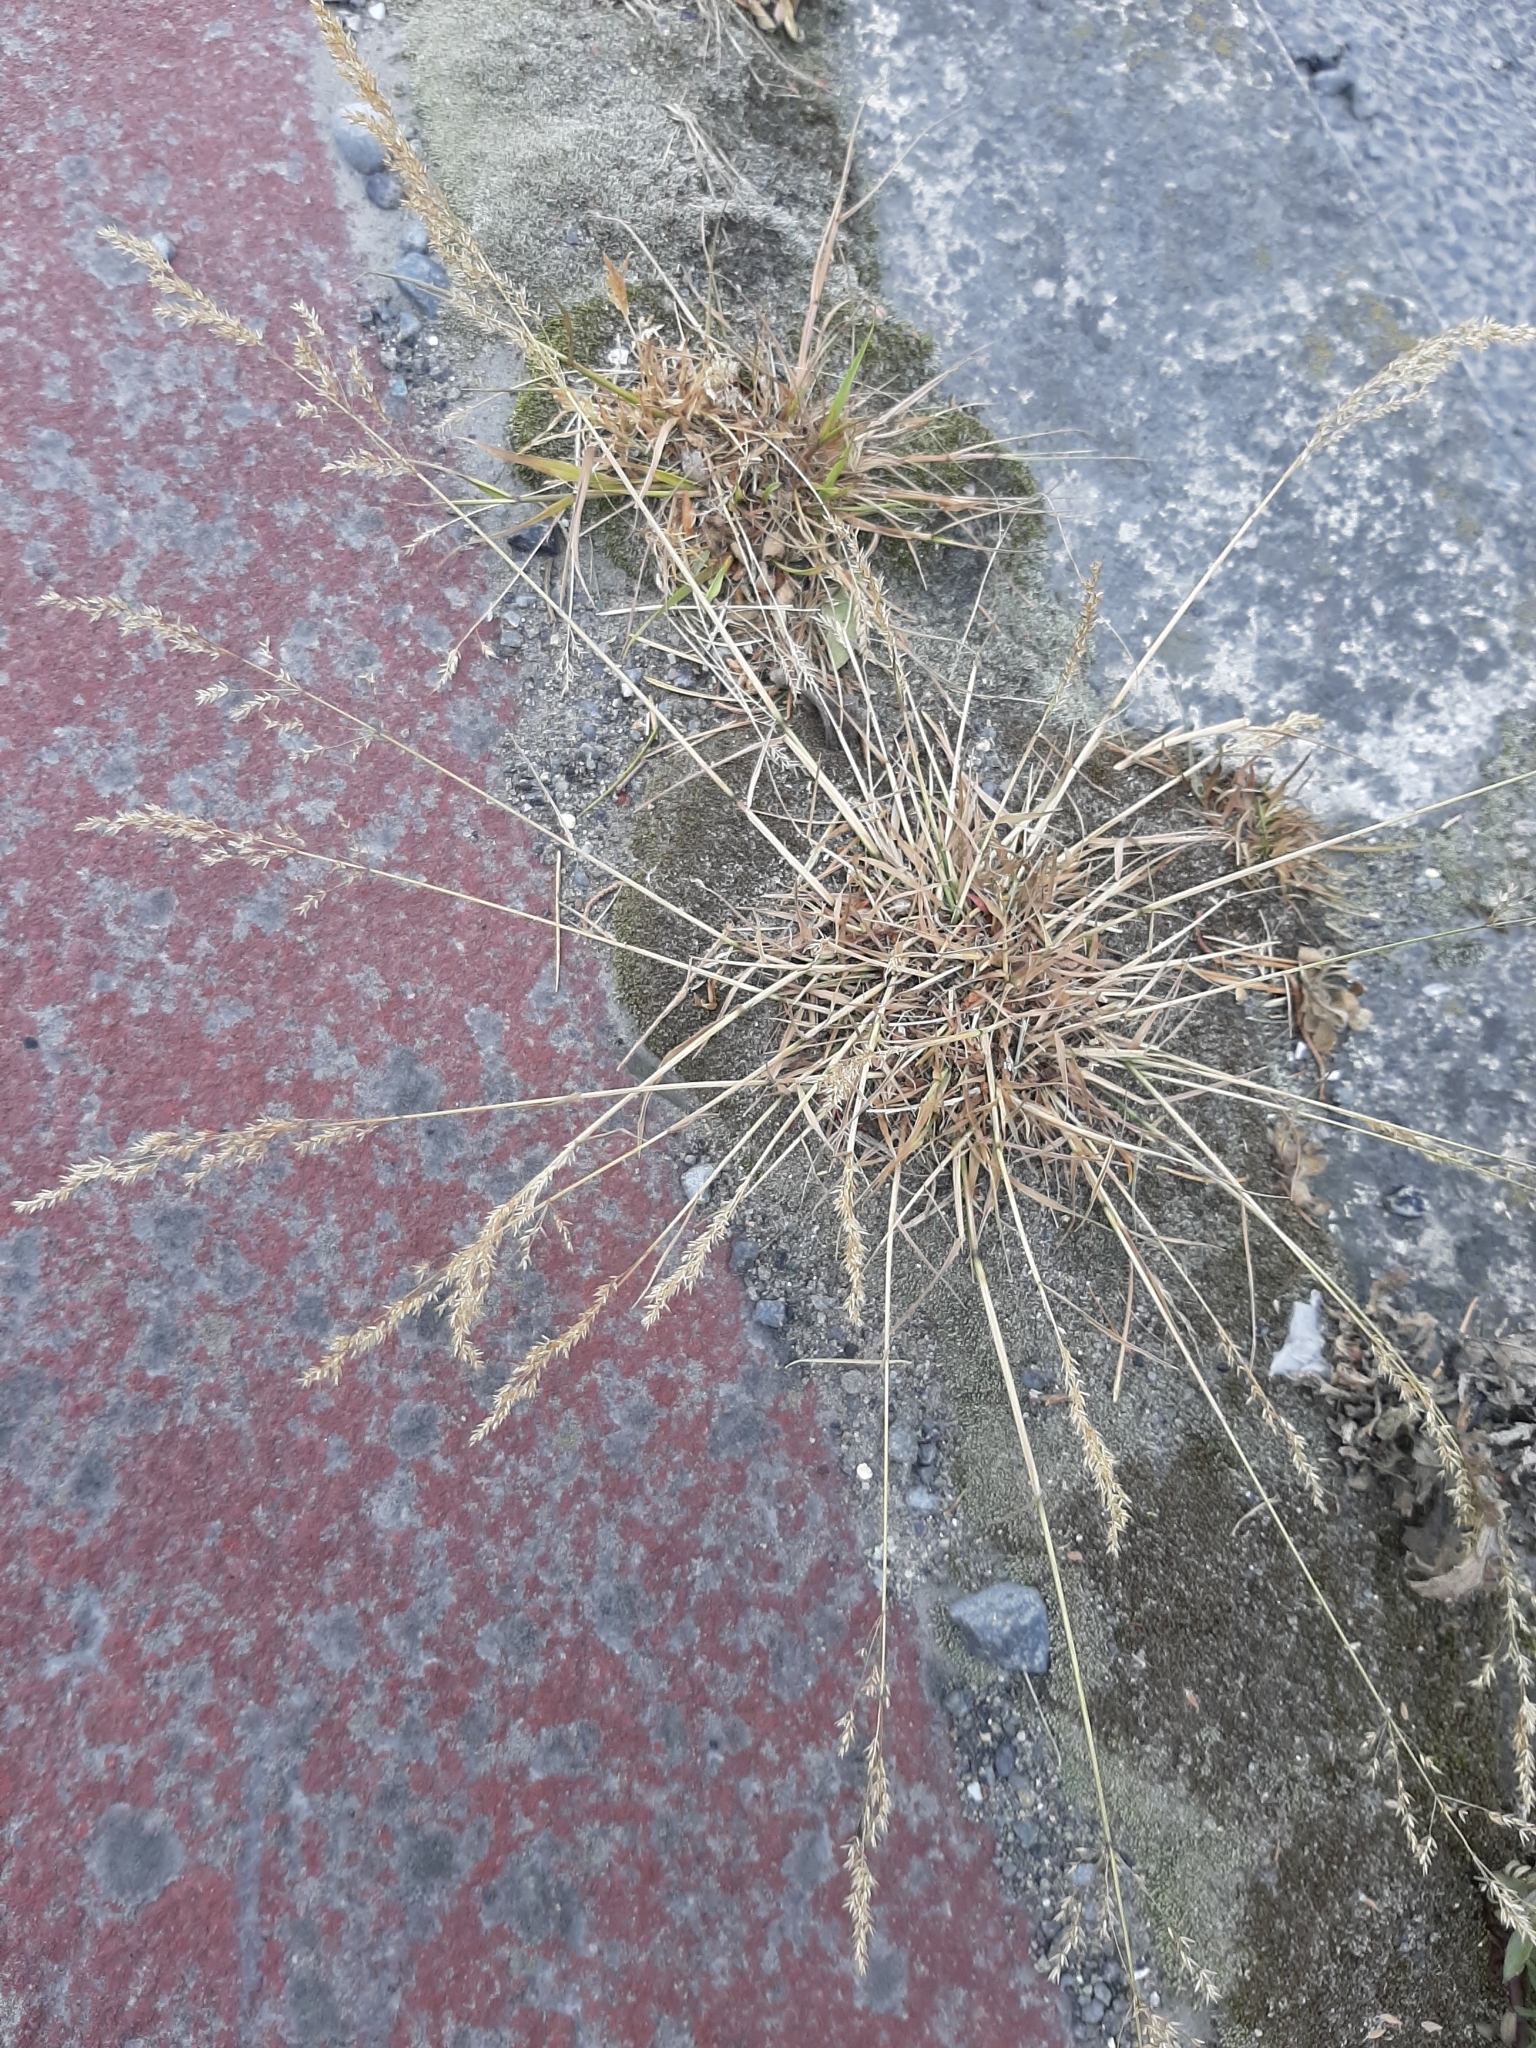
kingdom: Plantae
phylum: Tracheophyta
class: Liliopsida
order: Poales
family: Poaceae
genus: Agrostis
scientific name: Agrostis stolonifera
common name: Creeping bentgrass
